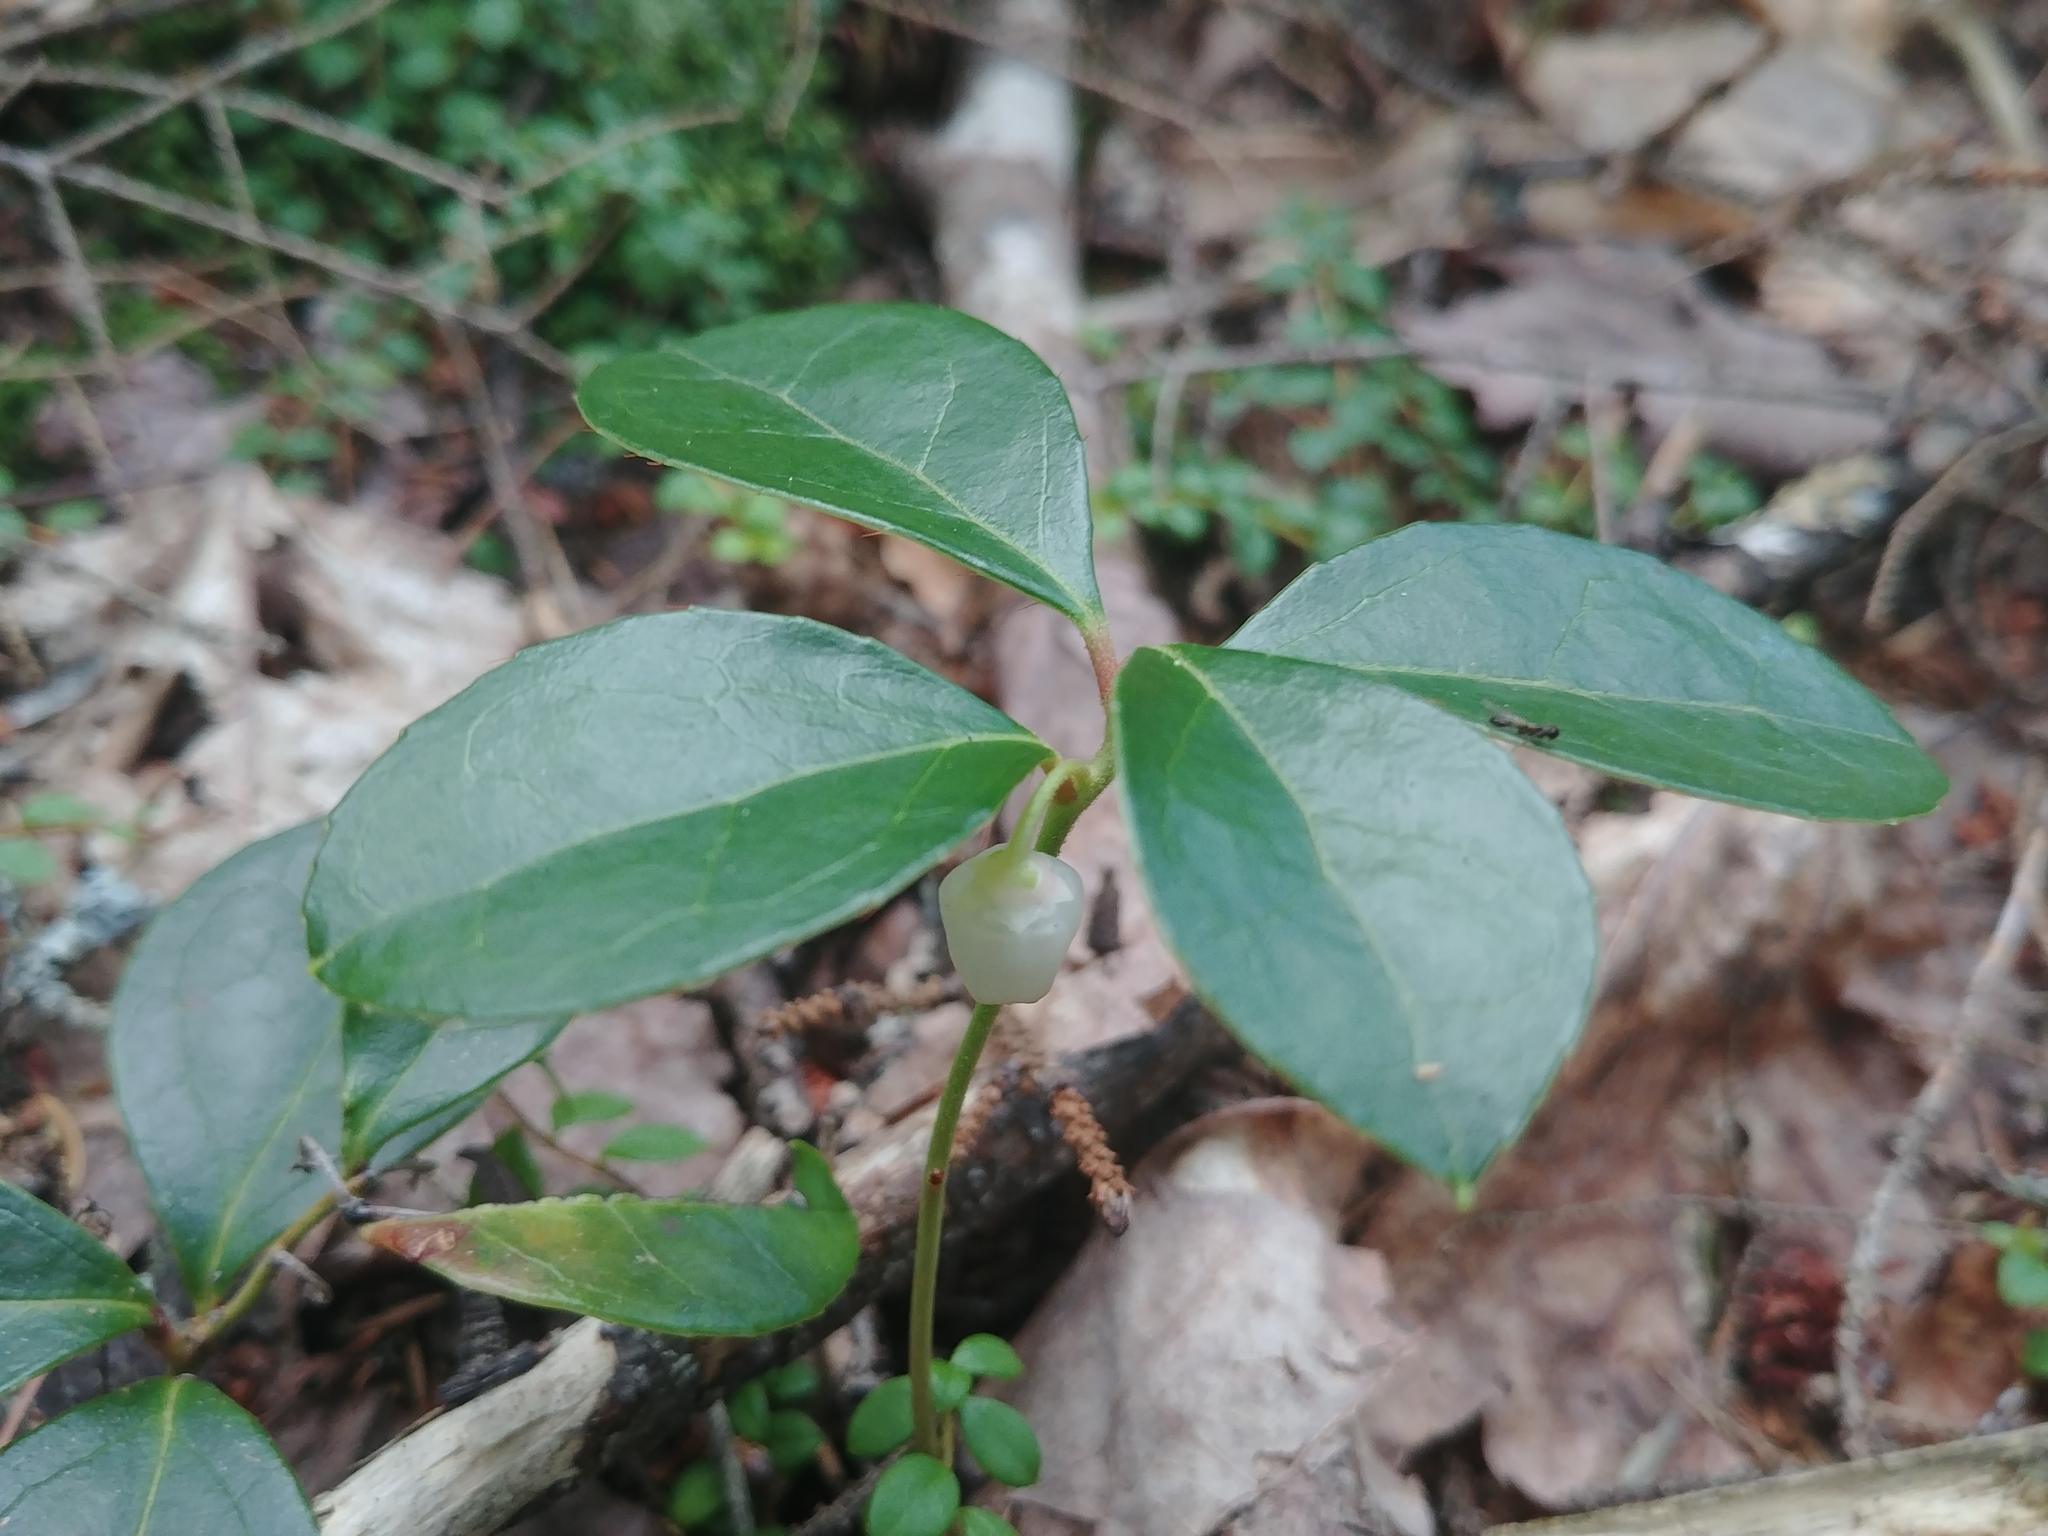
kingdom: Plantae
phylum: Tracheophyta
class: Magnoliopsida
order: Ericales
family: Ericaceae
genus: Gaultheria
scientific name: Gaultheria procumbens
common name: Checkerberry
